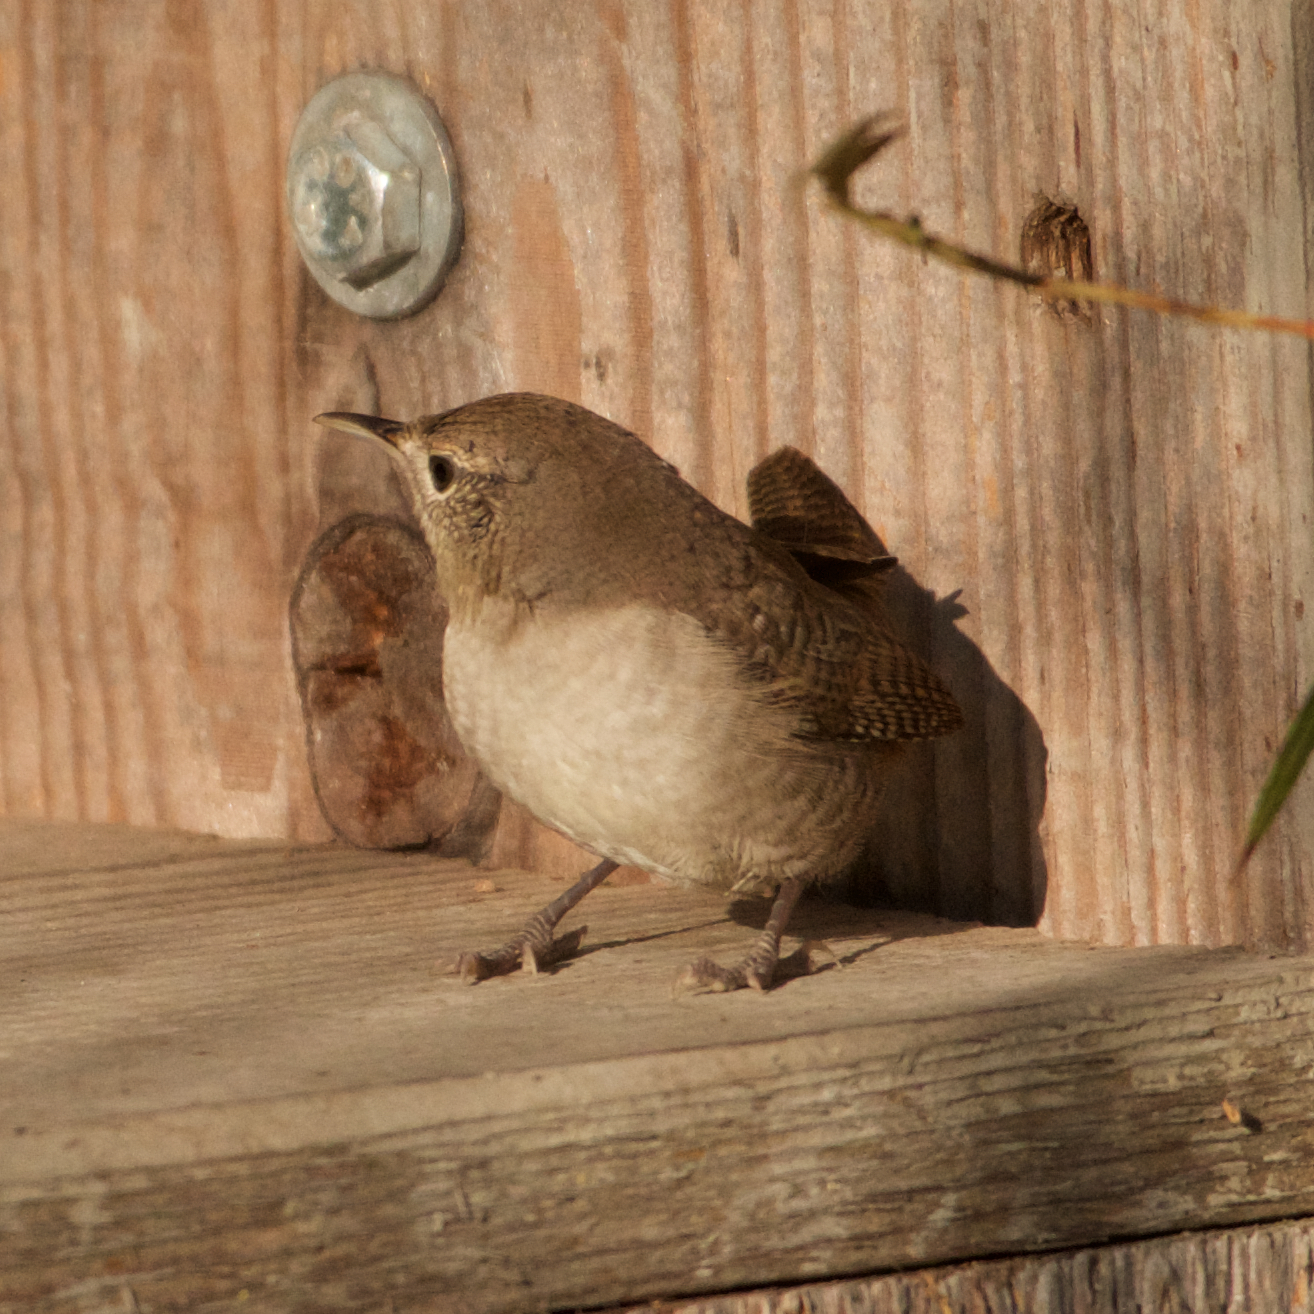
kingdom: Animalia
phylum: Chordata
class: Aves
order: Passeriformes
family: Troglodytidae
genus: Troglodytes
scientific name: Troglodytes aedon
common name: House wren
